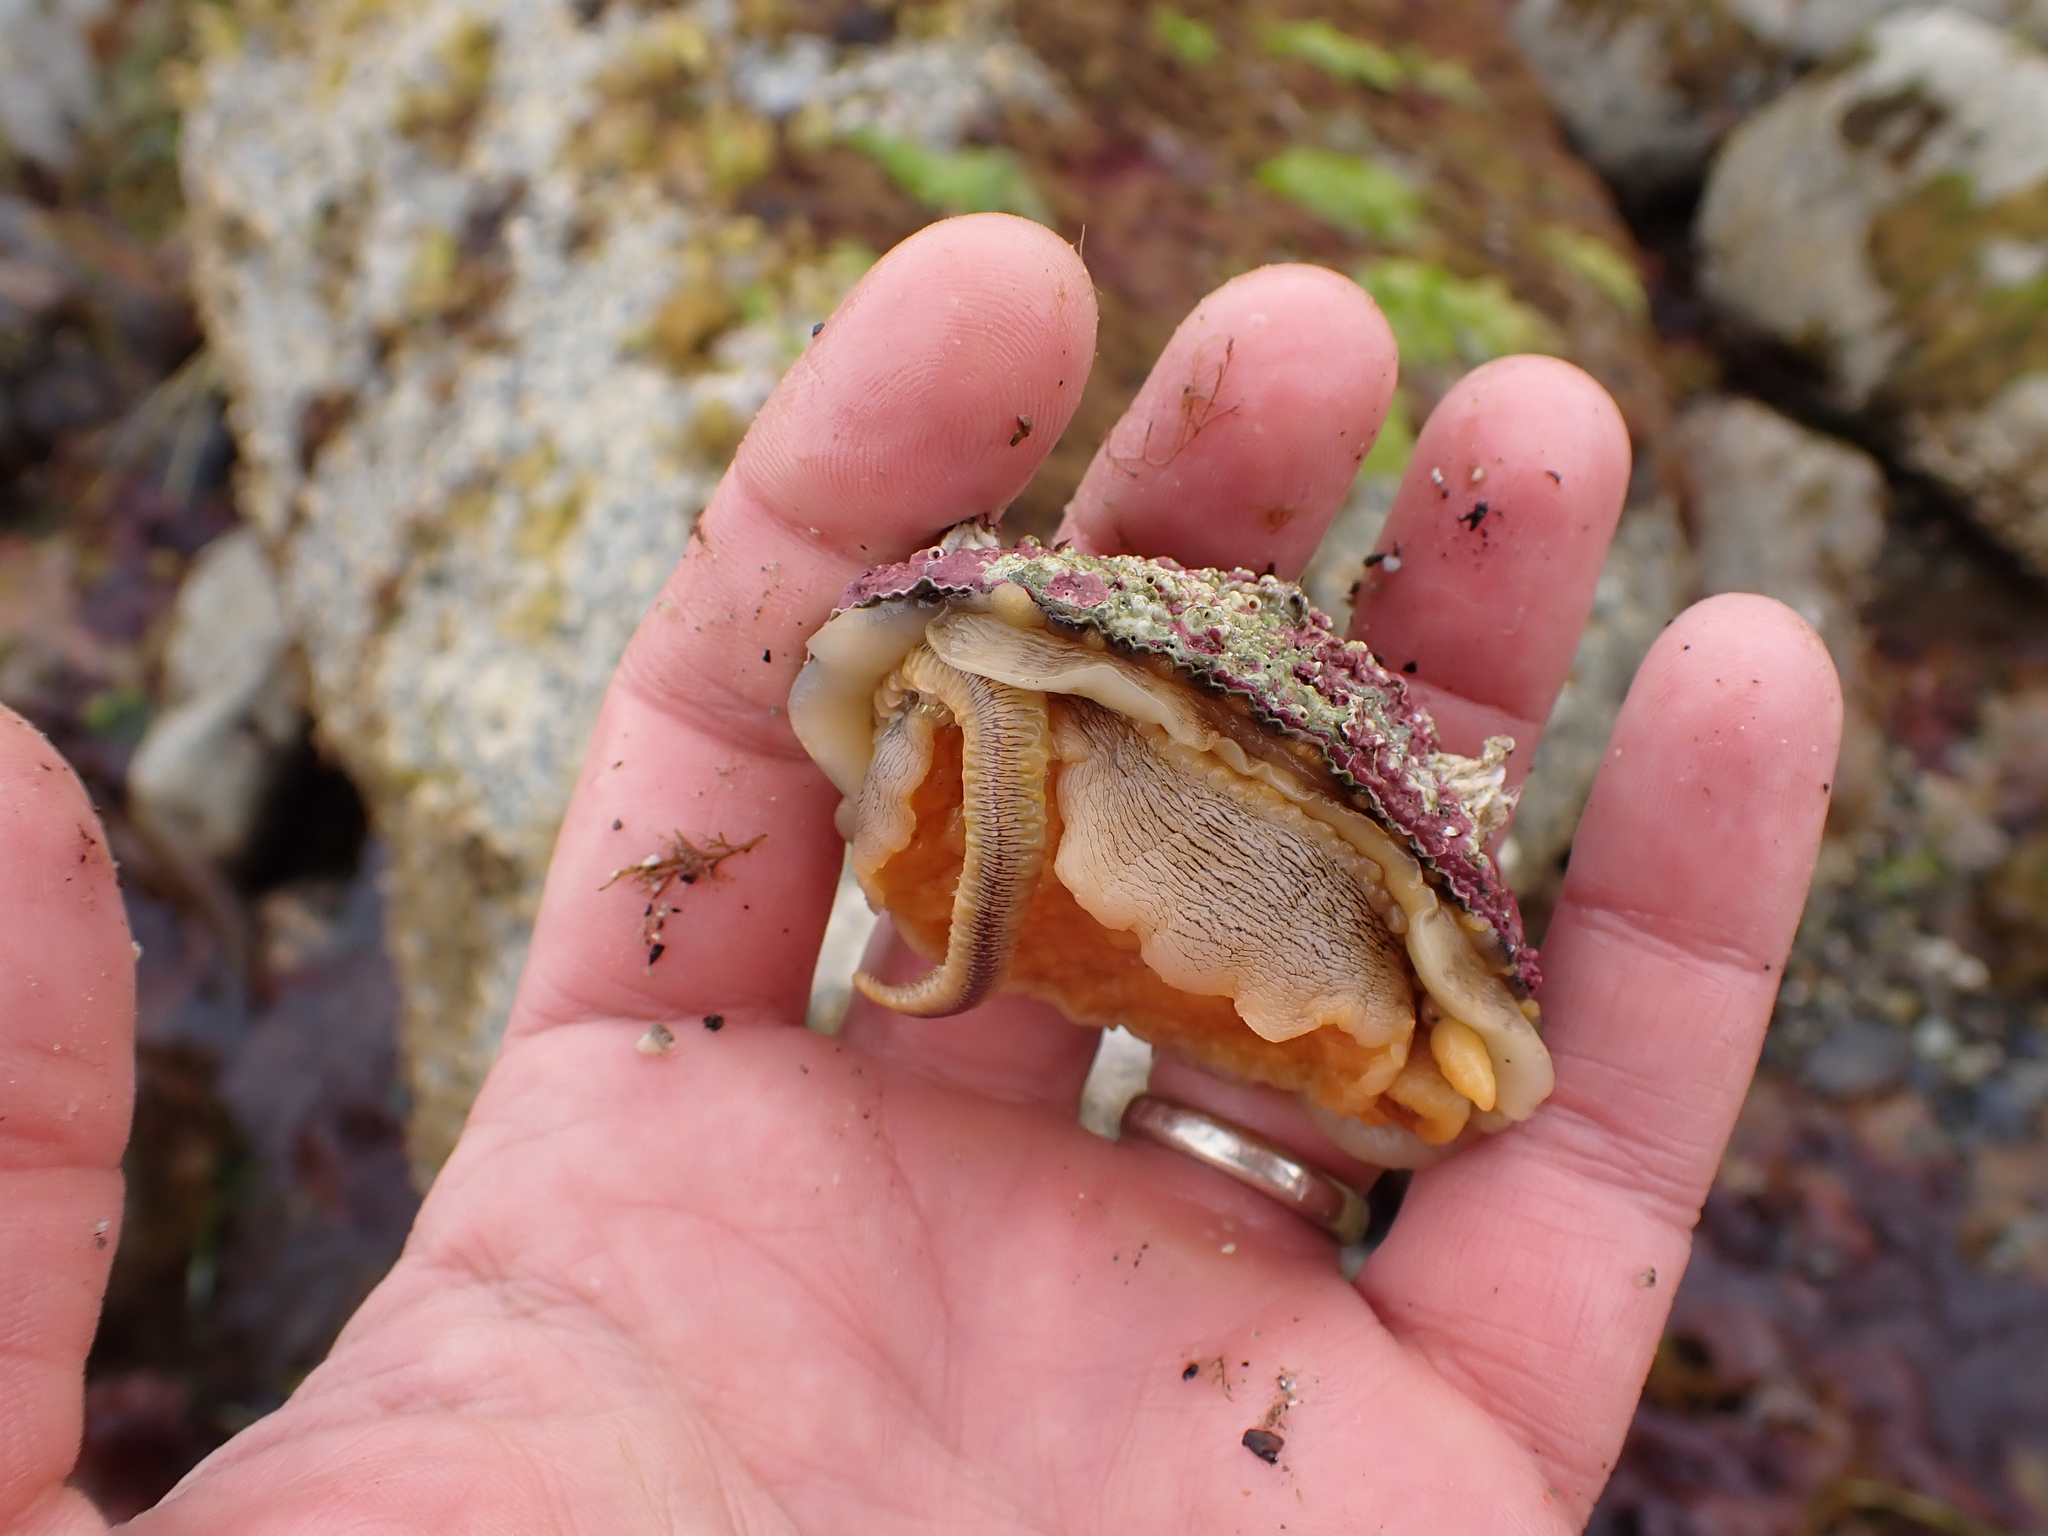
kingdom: Animalia
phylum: Annelida
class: Polychaeta
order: Phyllodocida
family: Polynoidae
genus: Arctonoe
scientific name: Arctonoe vittata
